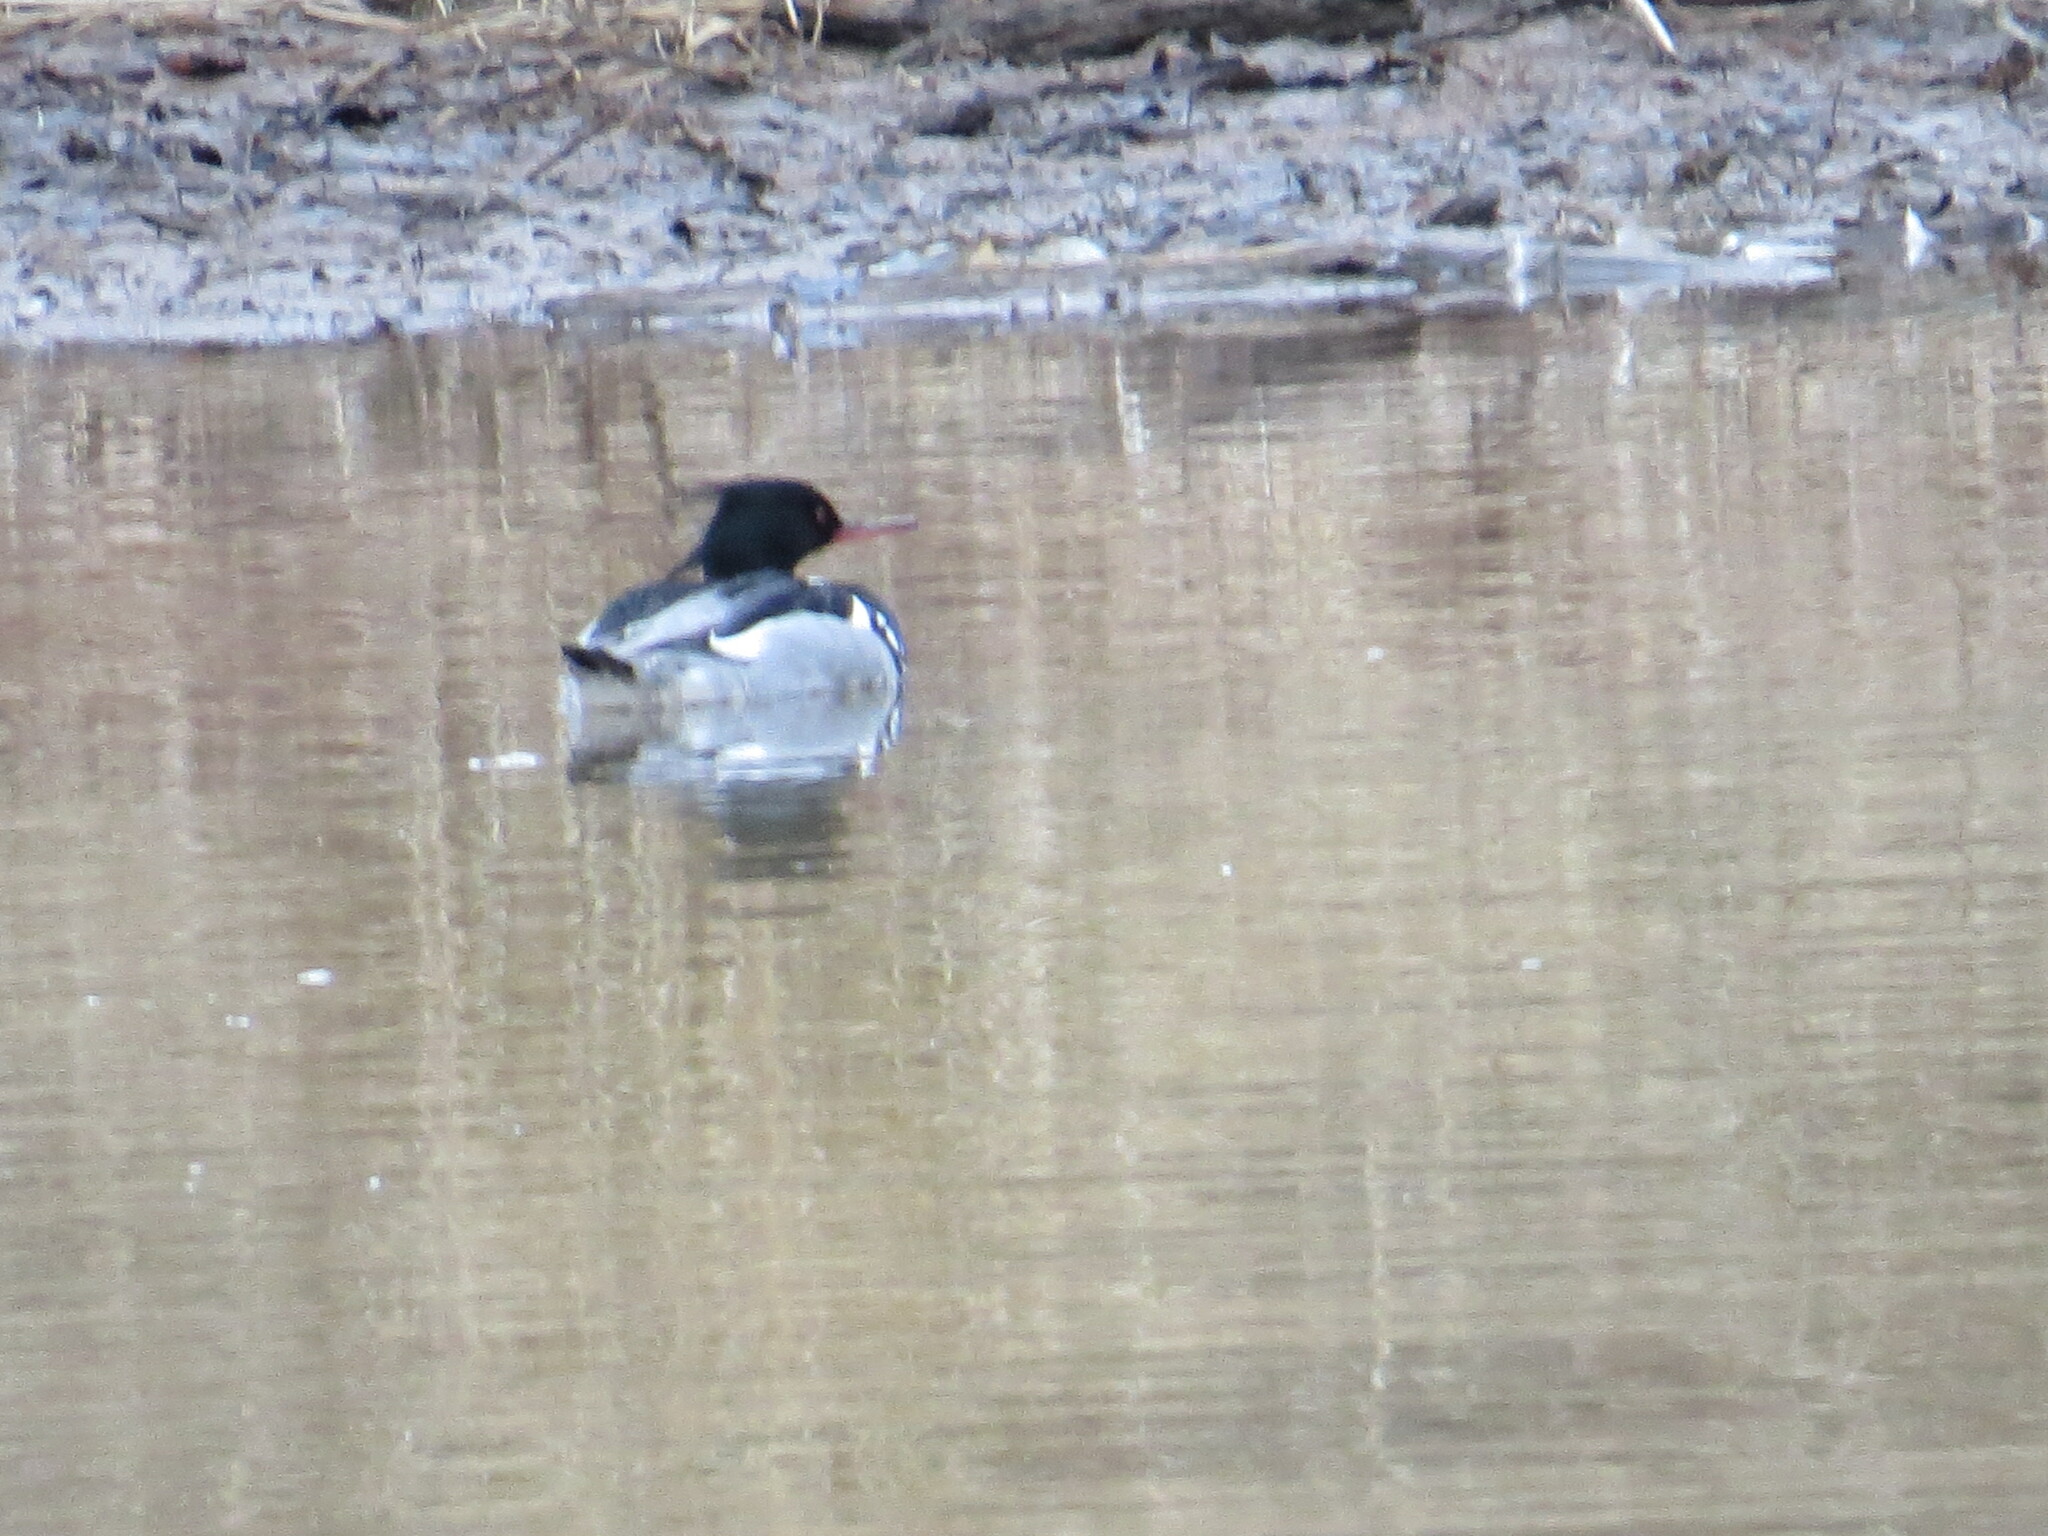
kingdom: Animalia
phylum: Chordata
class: Aves
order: Anseriformes
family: Anatidae
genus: Mergus
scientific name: Mergus serrator
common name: Red-breasted merganser
